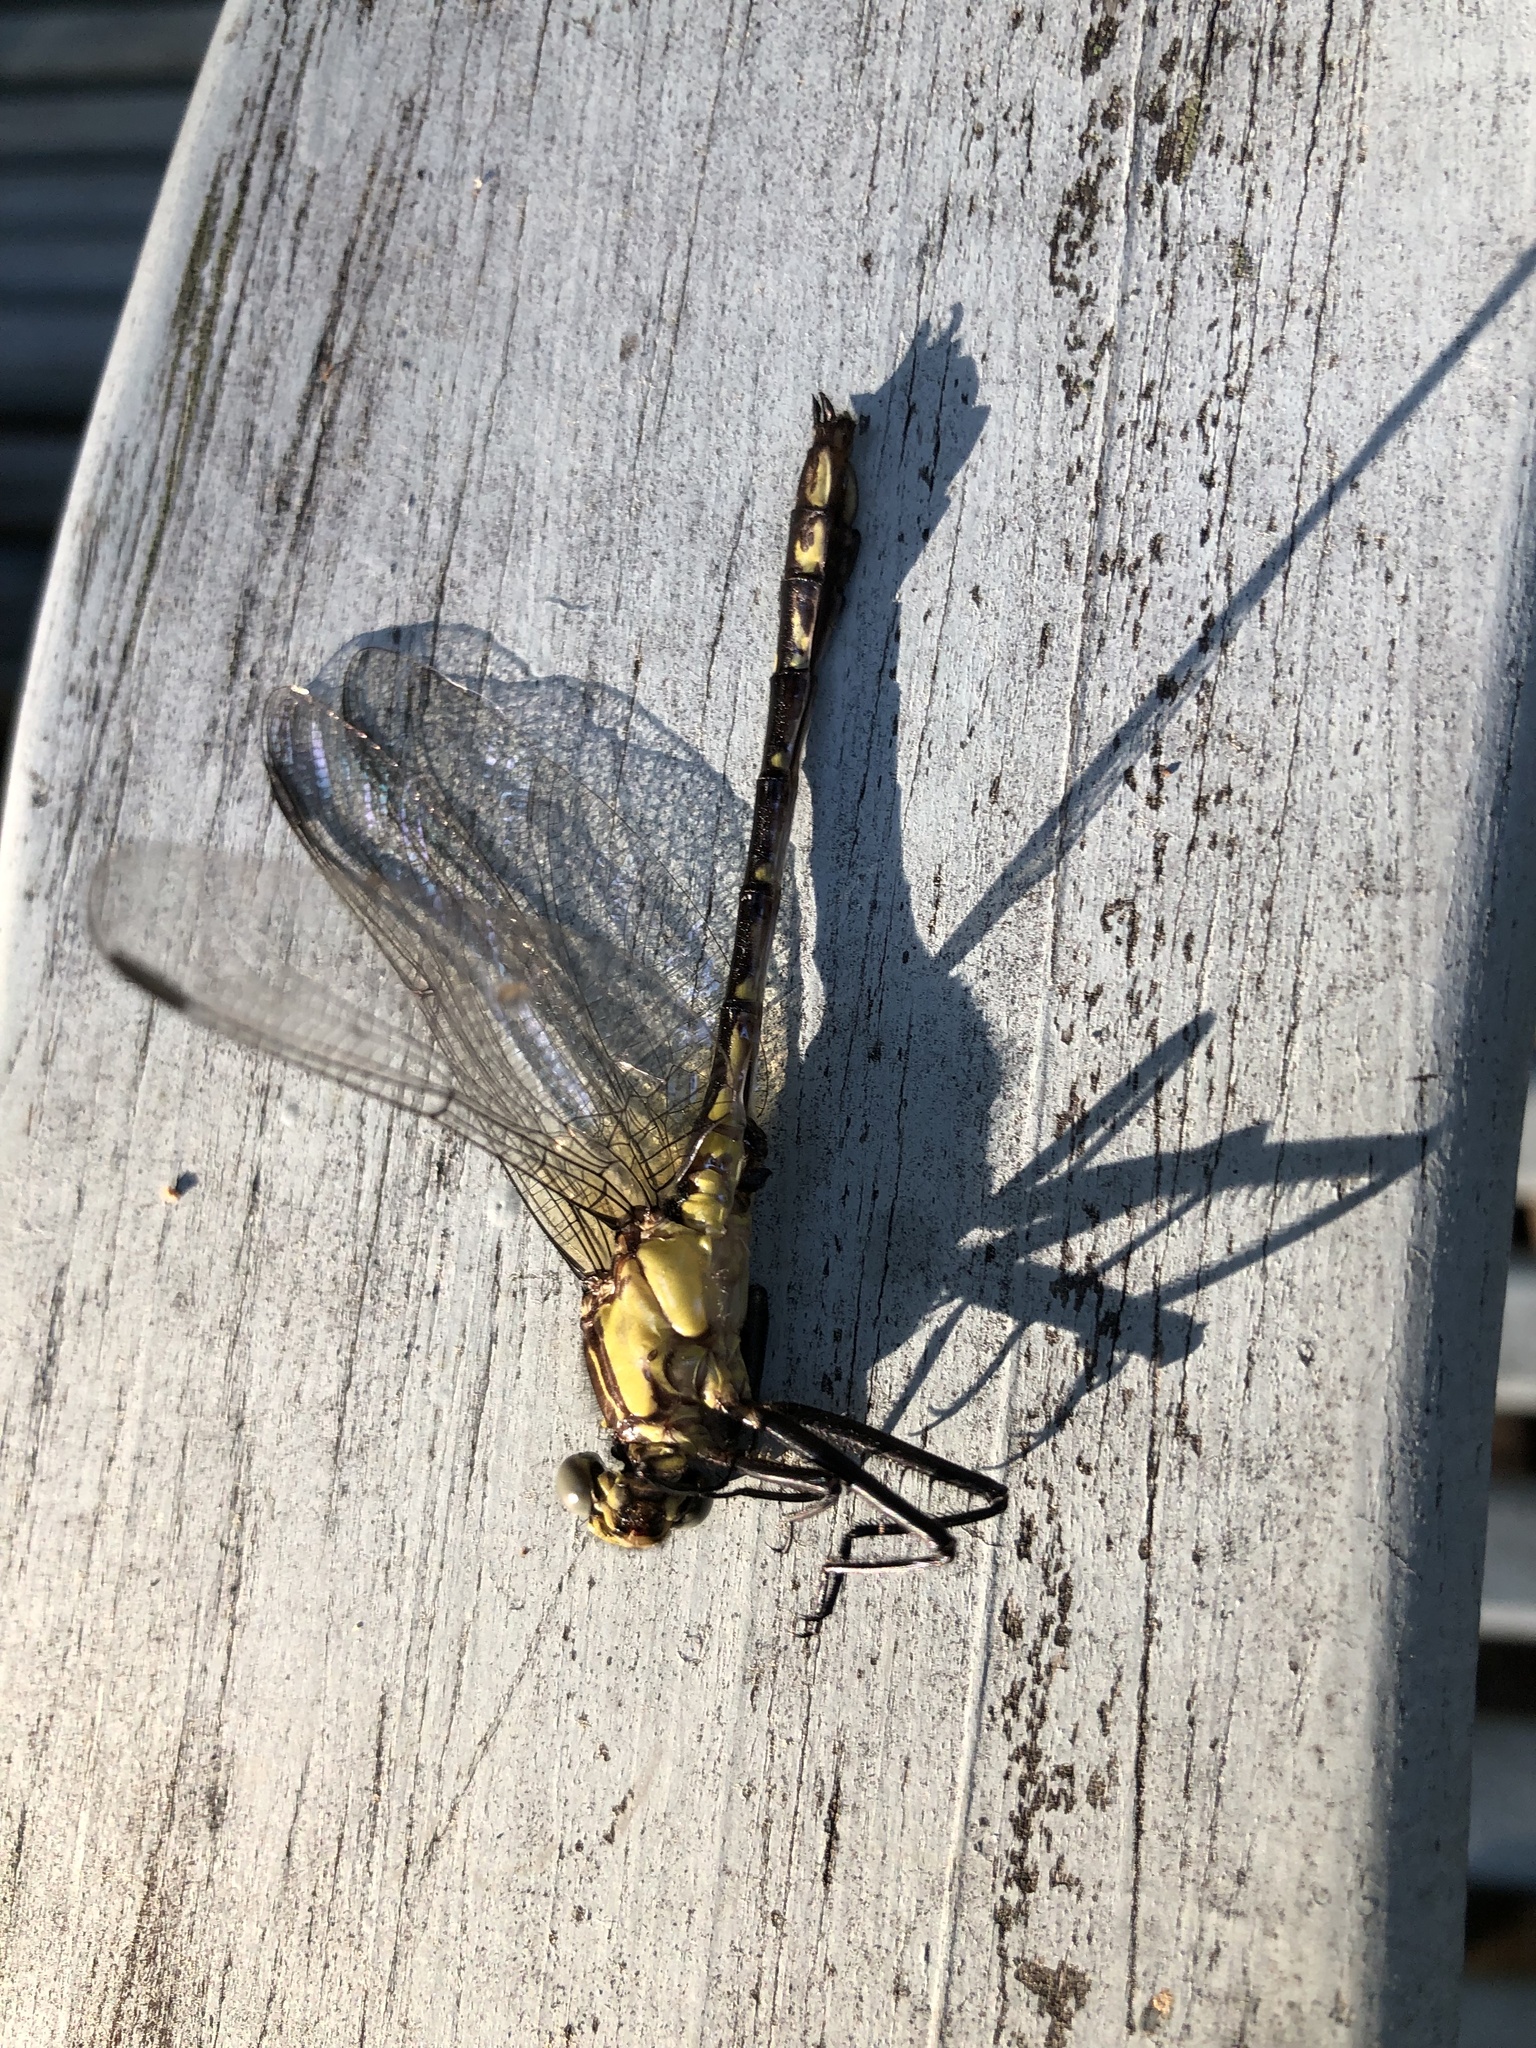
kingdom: Animalia
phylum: Arthropoda
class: Insecta
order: Odonata
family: Gomphidae
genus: Dromogomphus
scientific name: Dromogomphus spinosus
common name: Black-shouldered spinyleg
